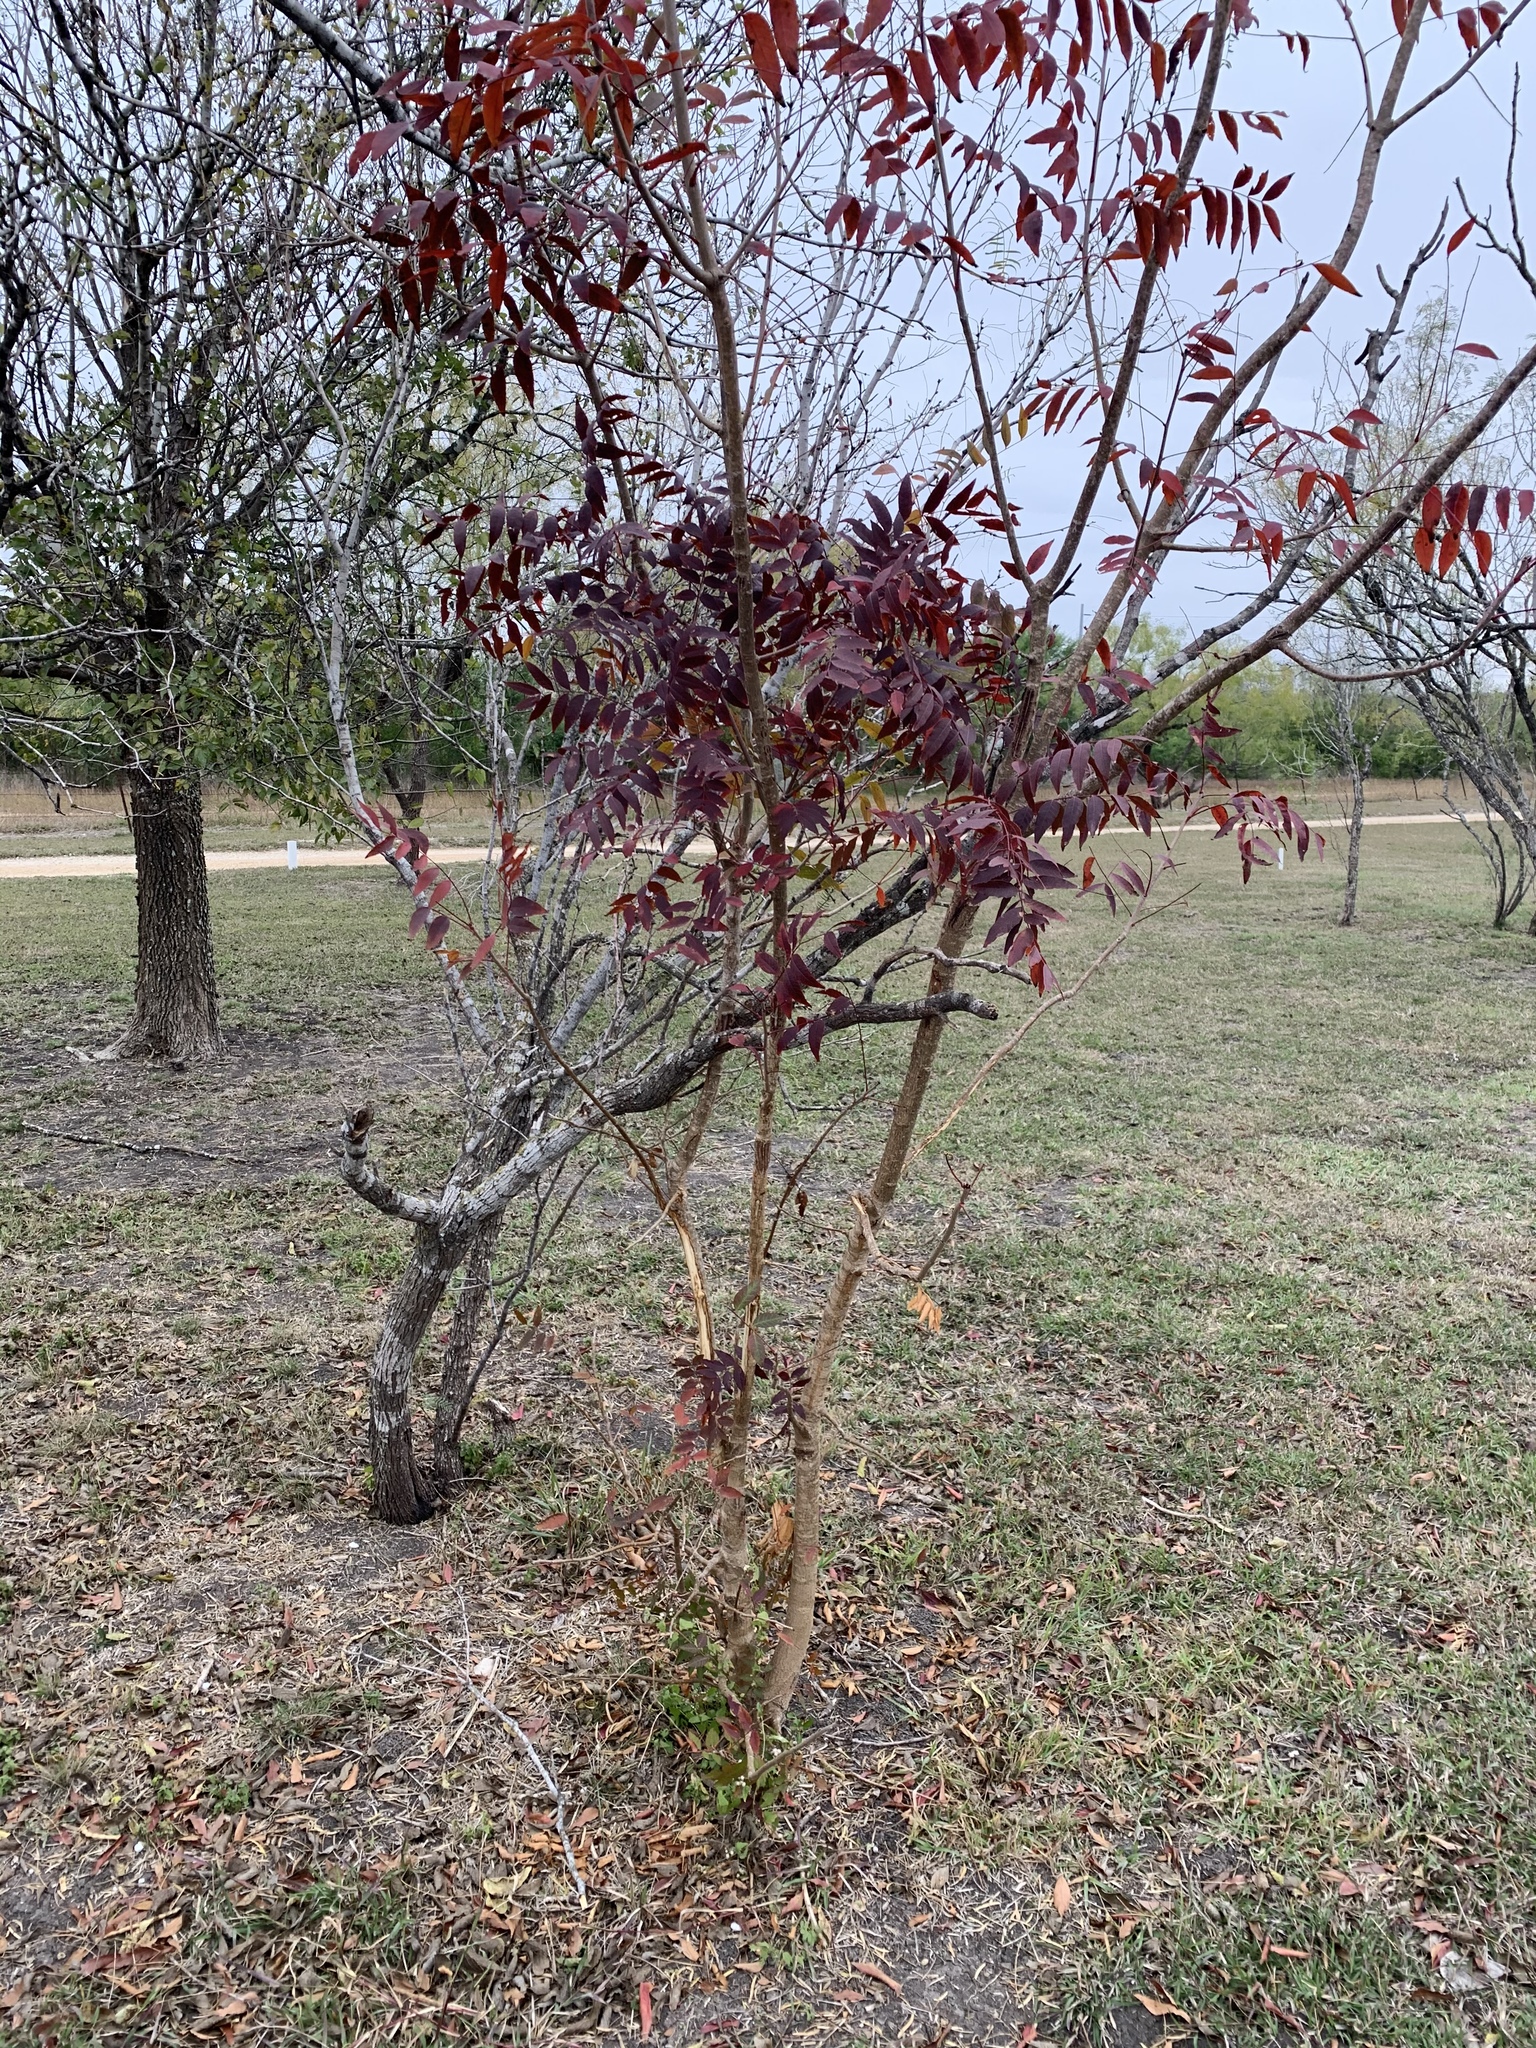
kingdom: Plantae
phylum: Tracheophyta
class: Magnoliopsida
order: Sapindales
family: Anacardiaceae
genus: Pistacia
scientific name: Pistacia chinensis
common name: Chinese pistache
